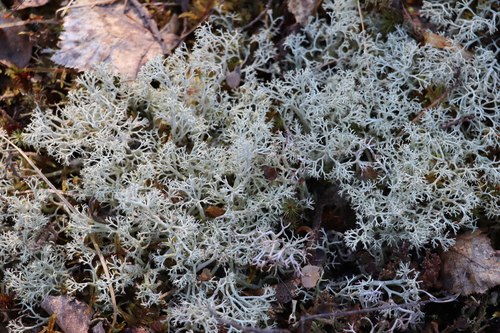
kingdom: Fungi
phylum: Ascomycota
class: Lecanoromycetes
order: Lecanorales
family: Cladoniaceae
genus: Cladonia
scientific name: Cladonia arbuscula
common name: Reindeer lichen
